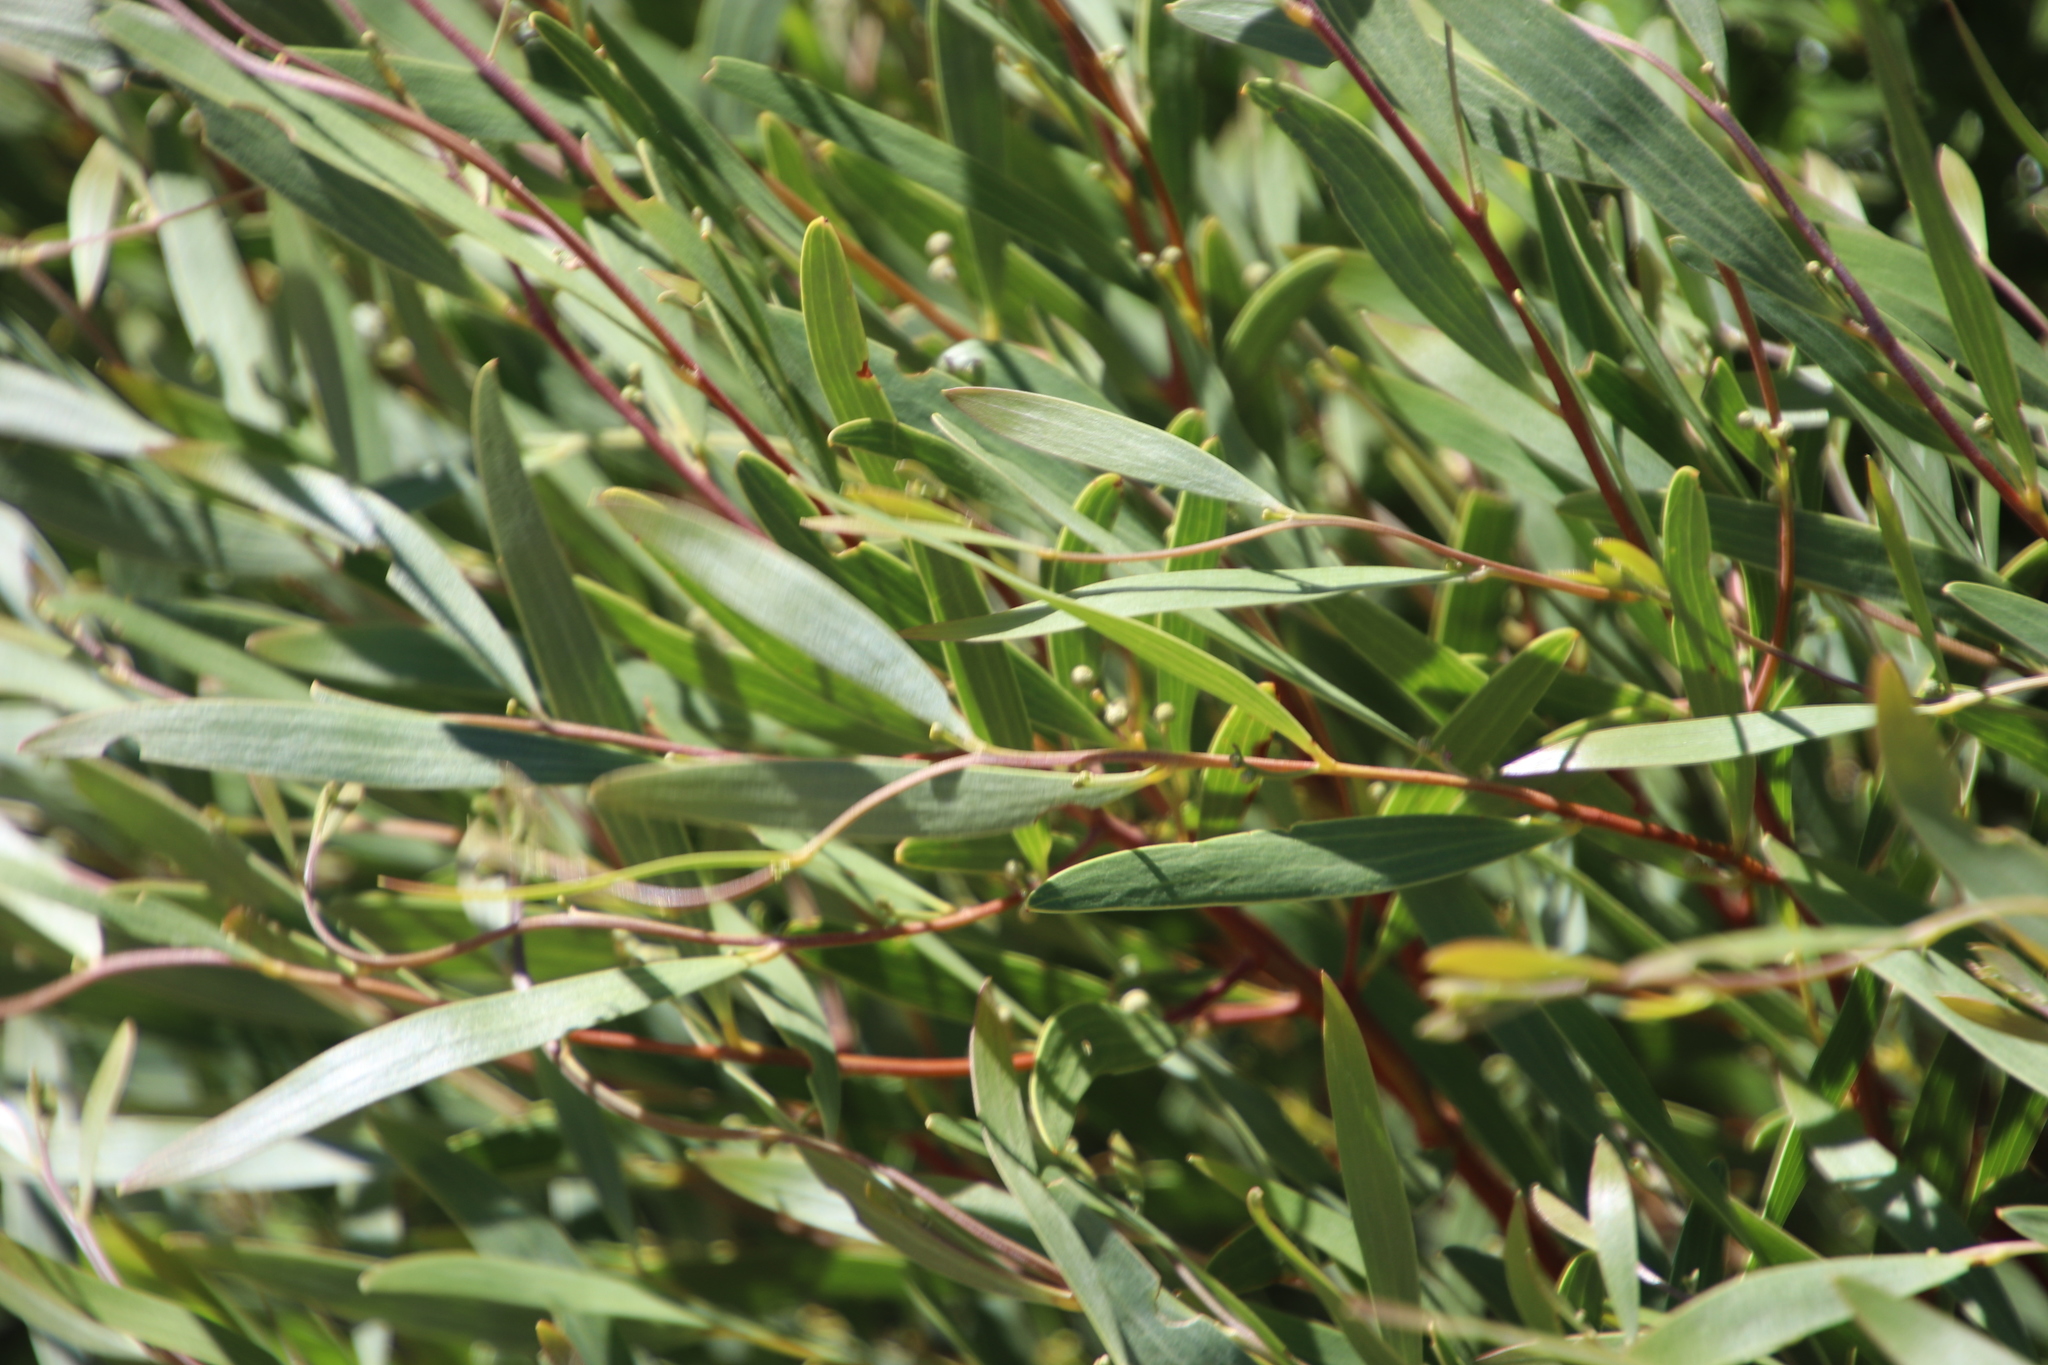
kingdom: Plantae
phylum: Tracheophyta
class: Magnoliopsida
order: Fabales
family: Fabaceae
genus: Acacia
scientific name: Acacia cyclops
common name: Coastal wattle
